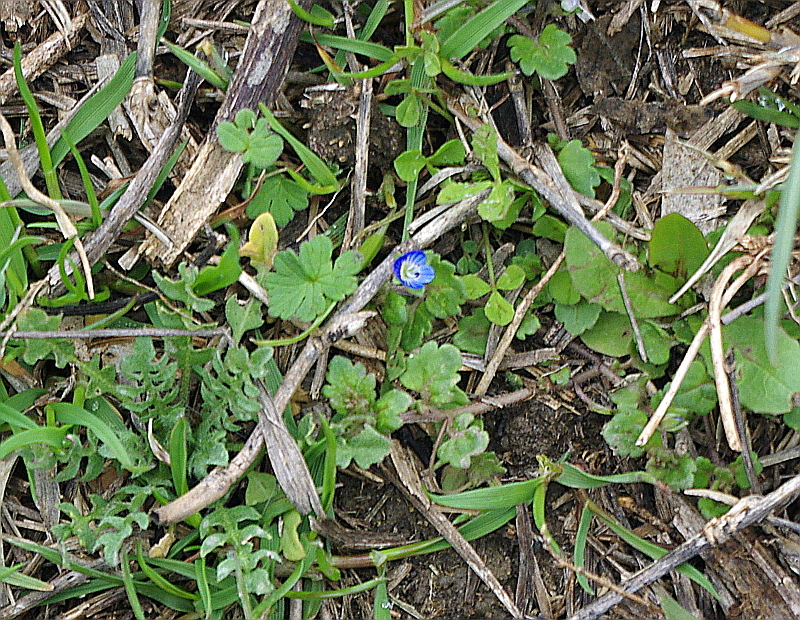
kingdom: Plantae
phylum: Tracheophyta
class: Magnoliopsida
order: Lamiales
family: Plantaginaceae
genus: Veronica
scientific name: Veronica polita
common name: Grey field-speedwell
